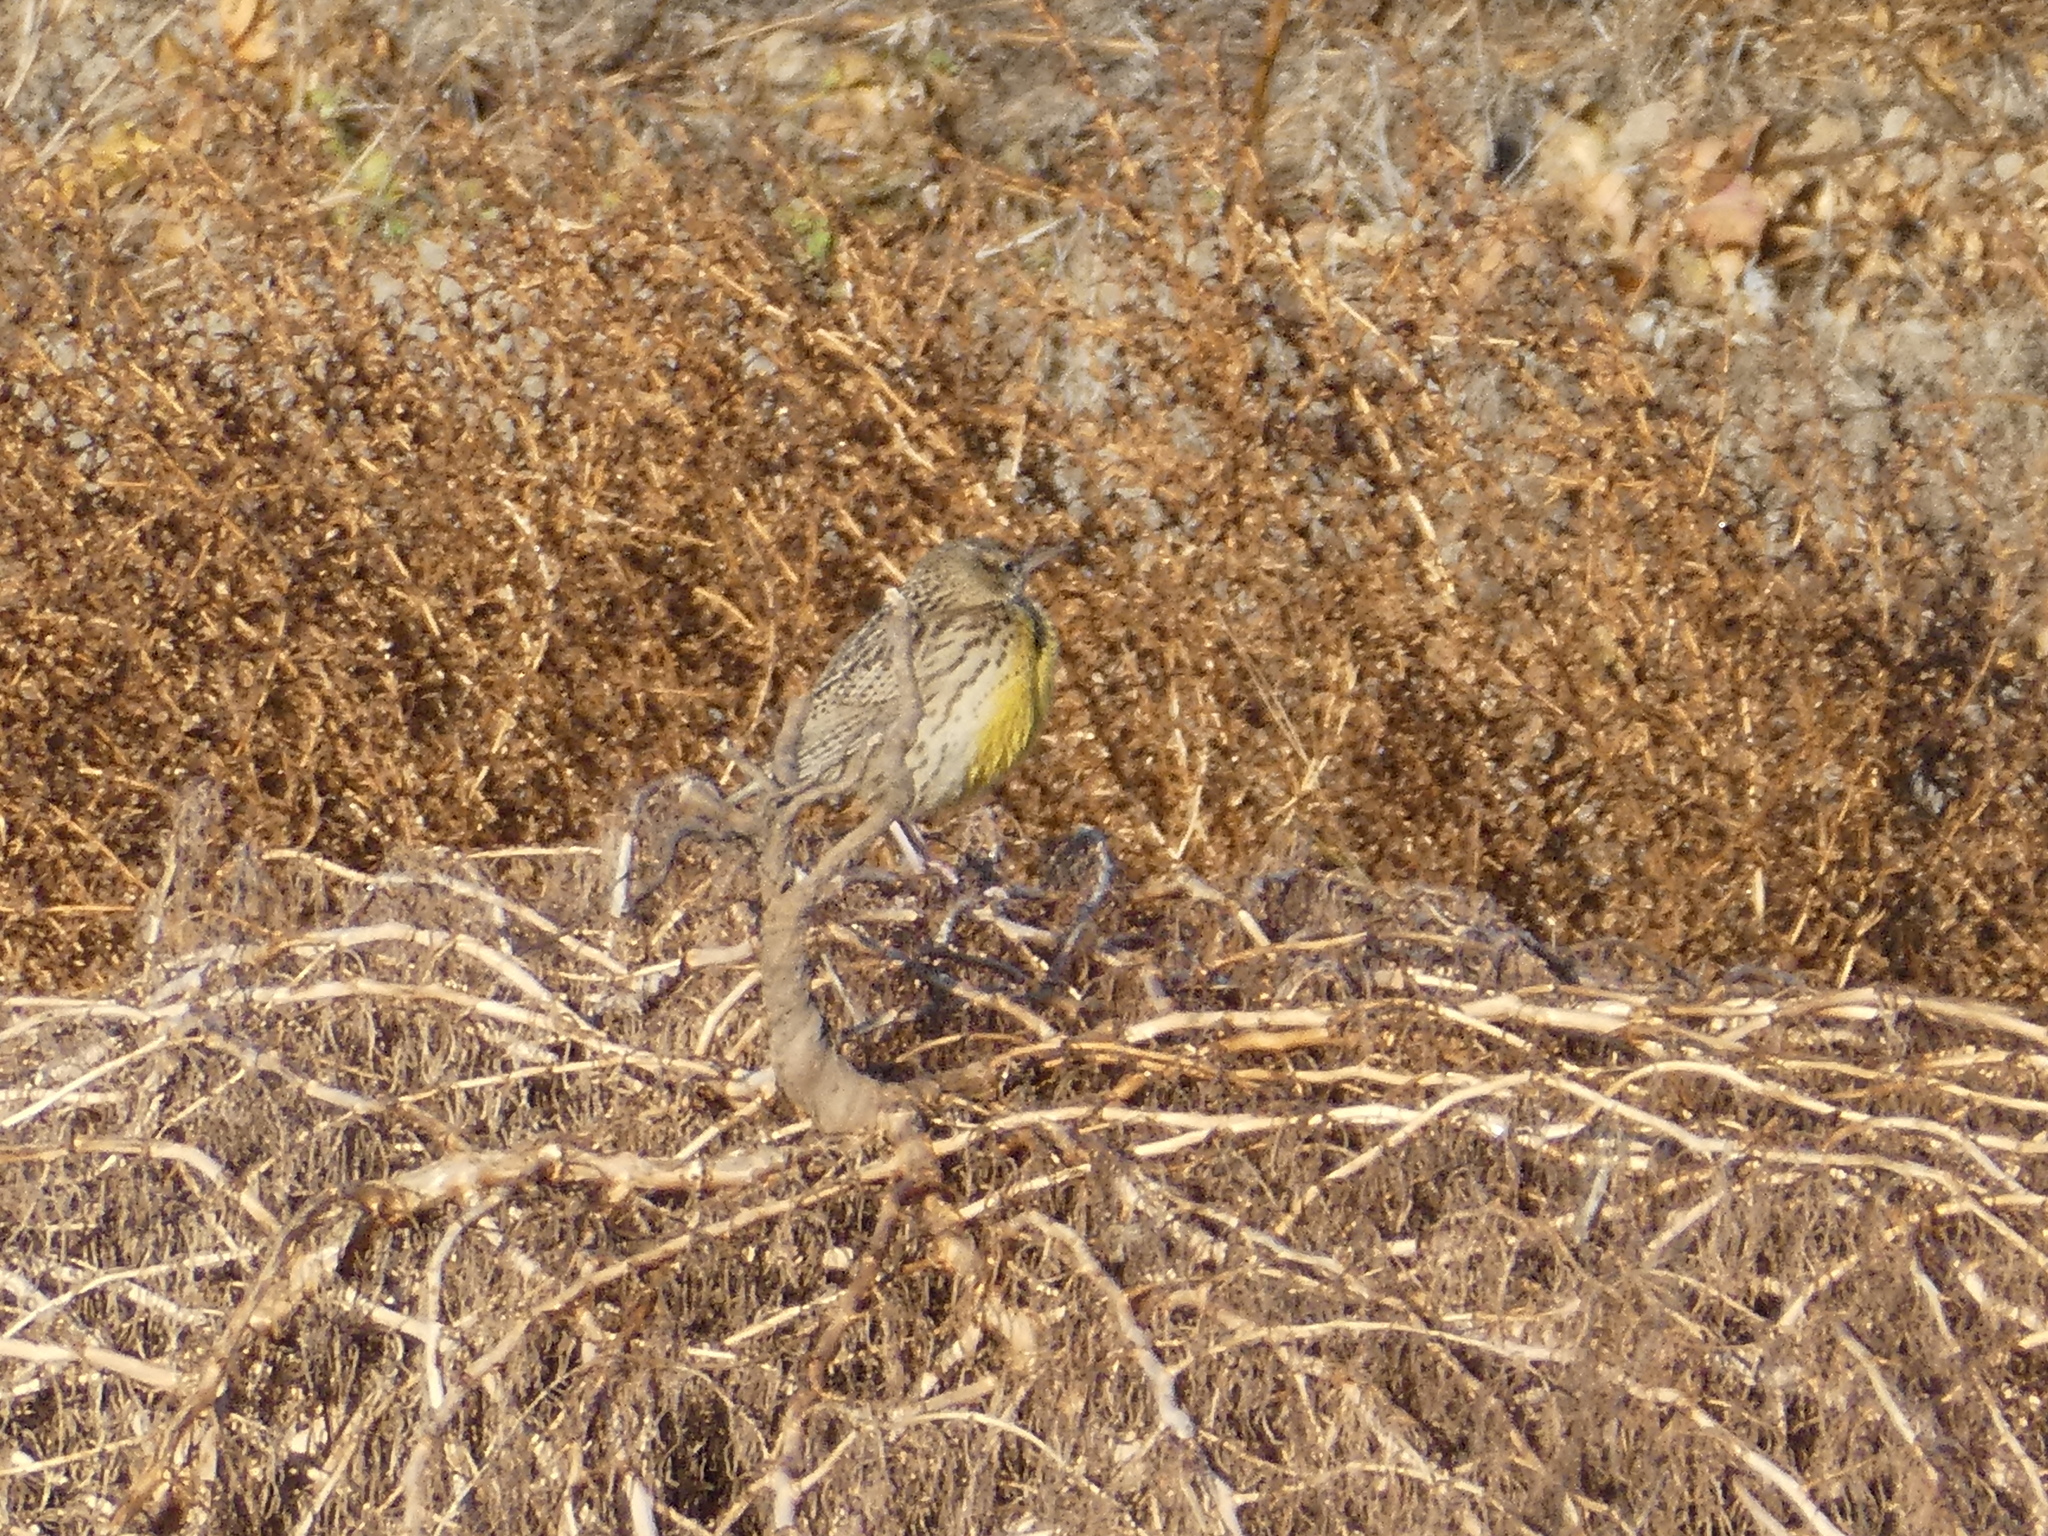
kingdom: Animalia
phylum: Chordata
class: Aves
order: Passeriformes
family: Icteridae
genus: Sturnella
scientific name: Sturnella neglecta
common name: Western meadowlark
